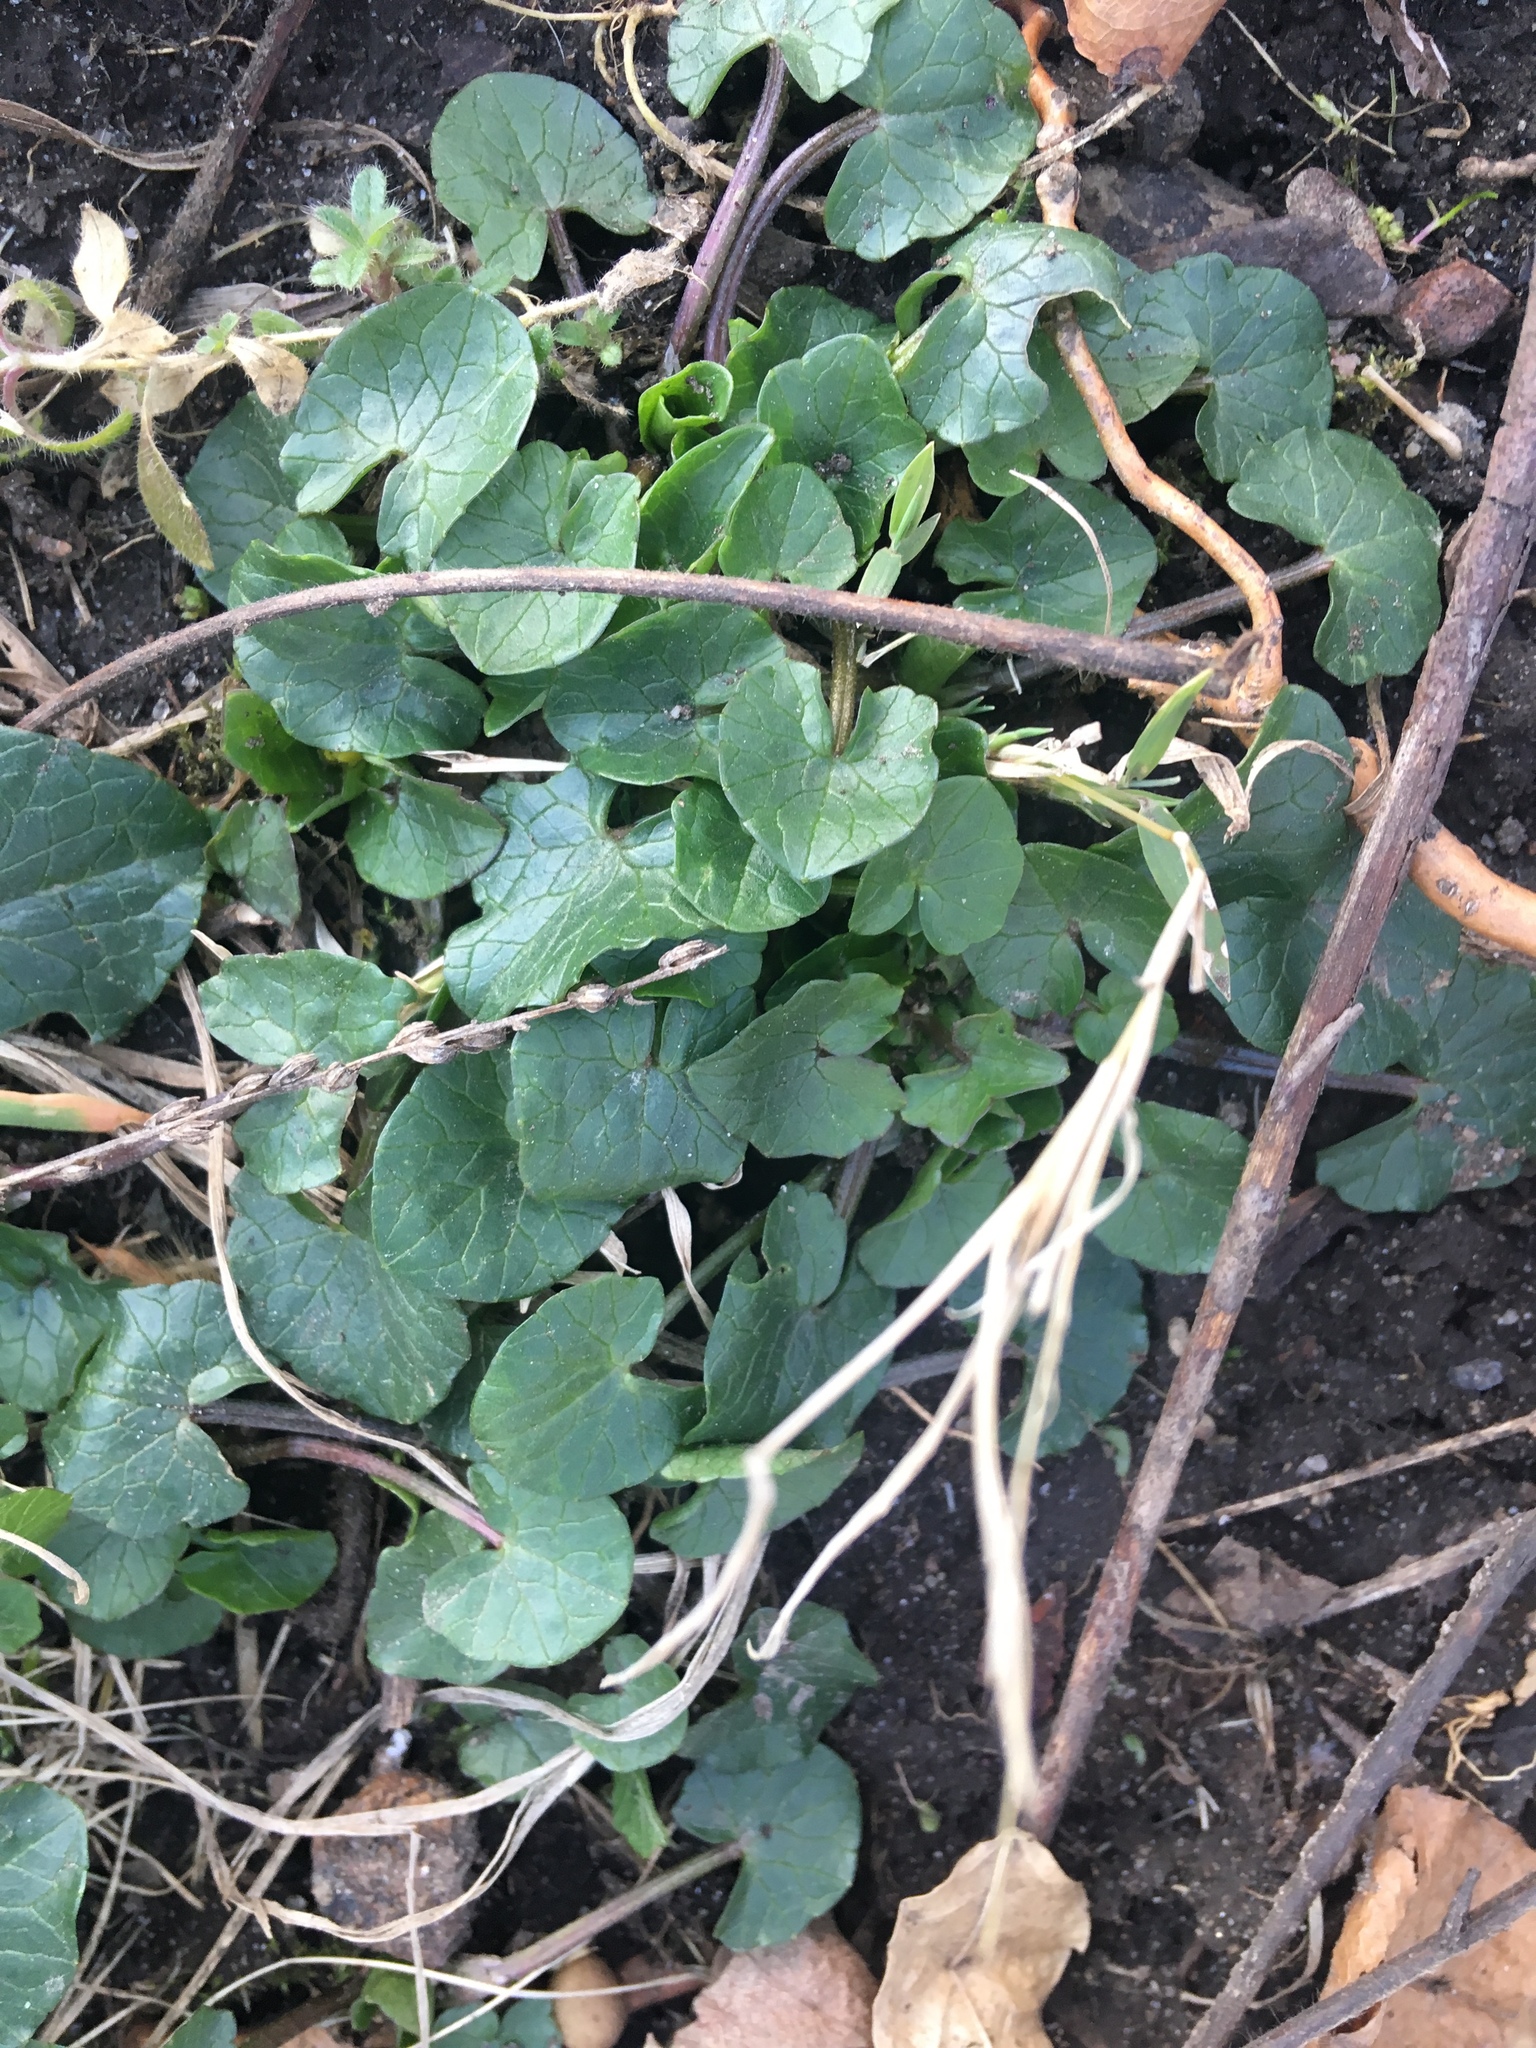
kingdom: Plantae
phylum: Tracheophyta
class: Magnoliopsida
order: Ranunculales
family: Ranunculaceae
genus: Ficaria
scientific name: Ficaria verna
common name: Lesser celandine
